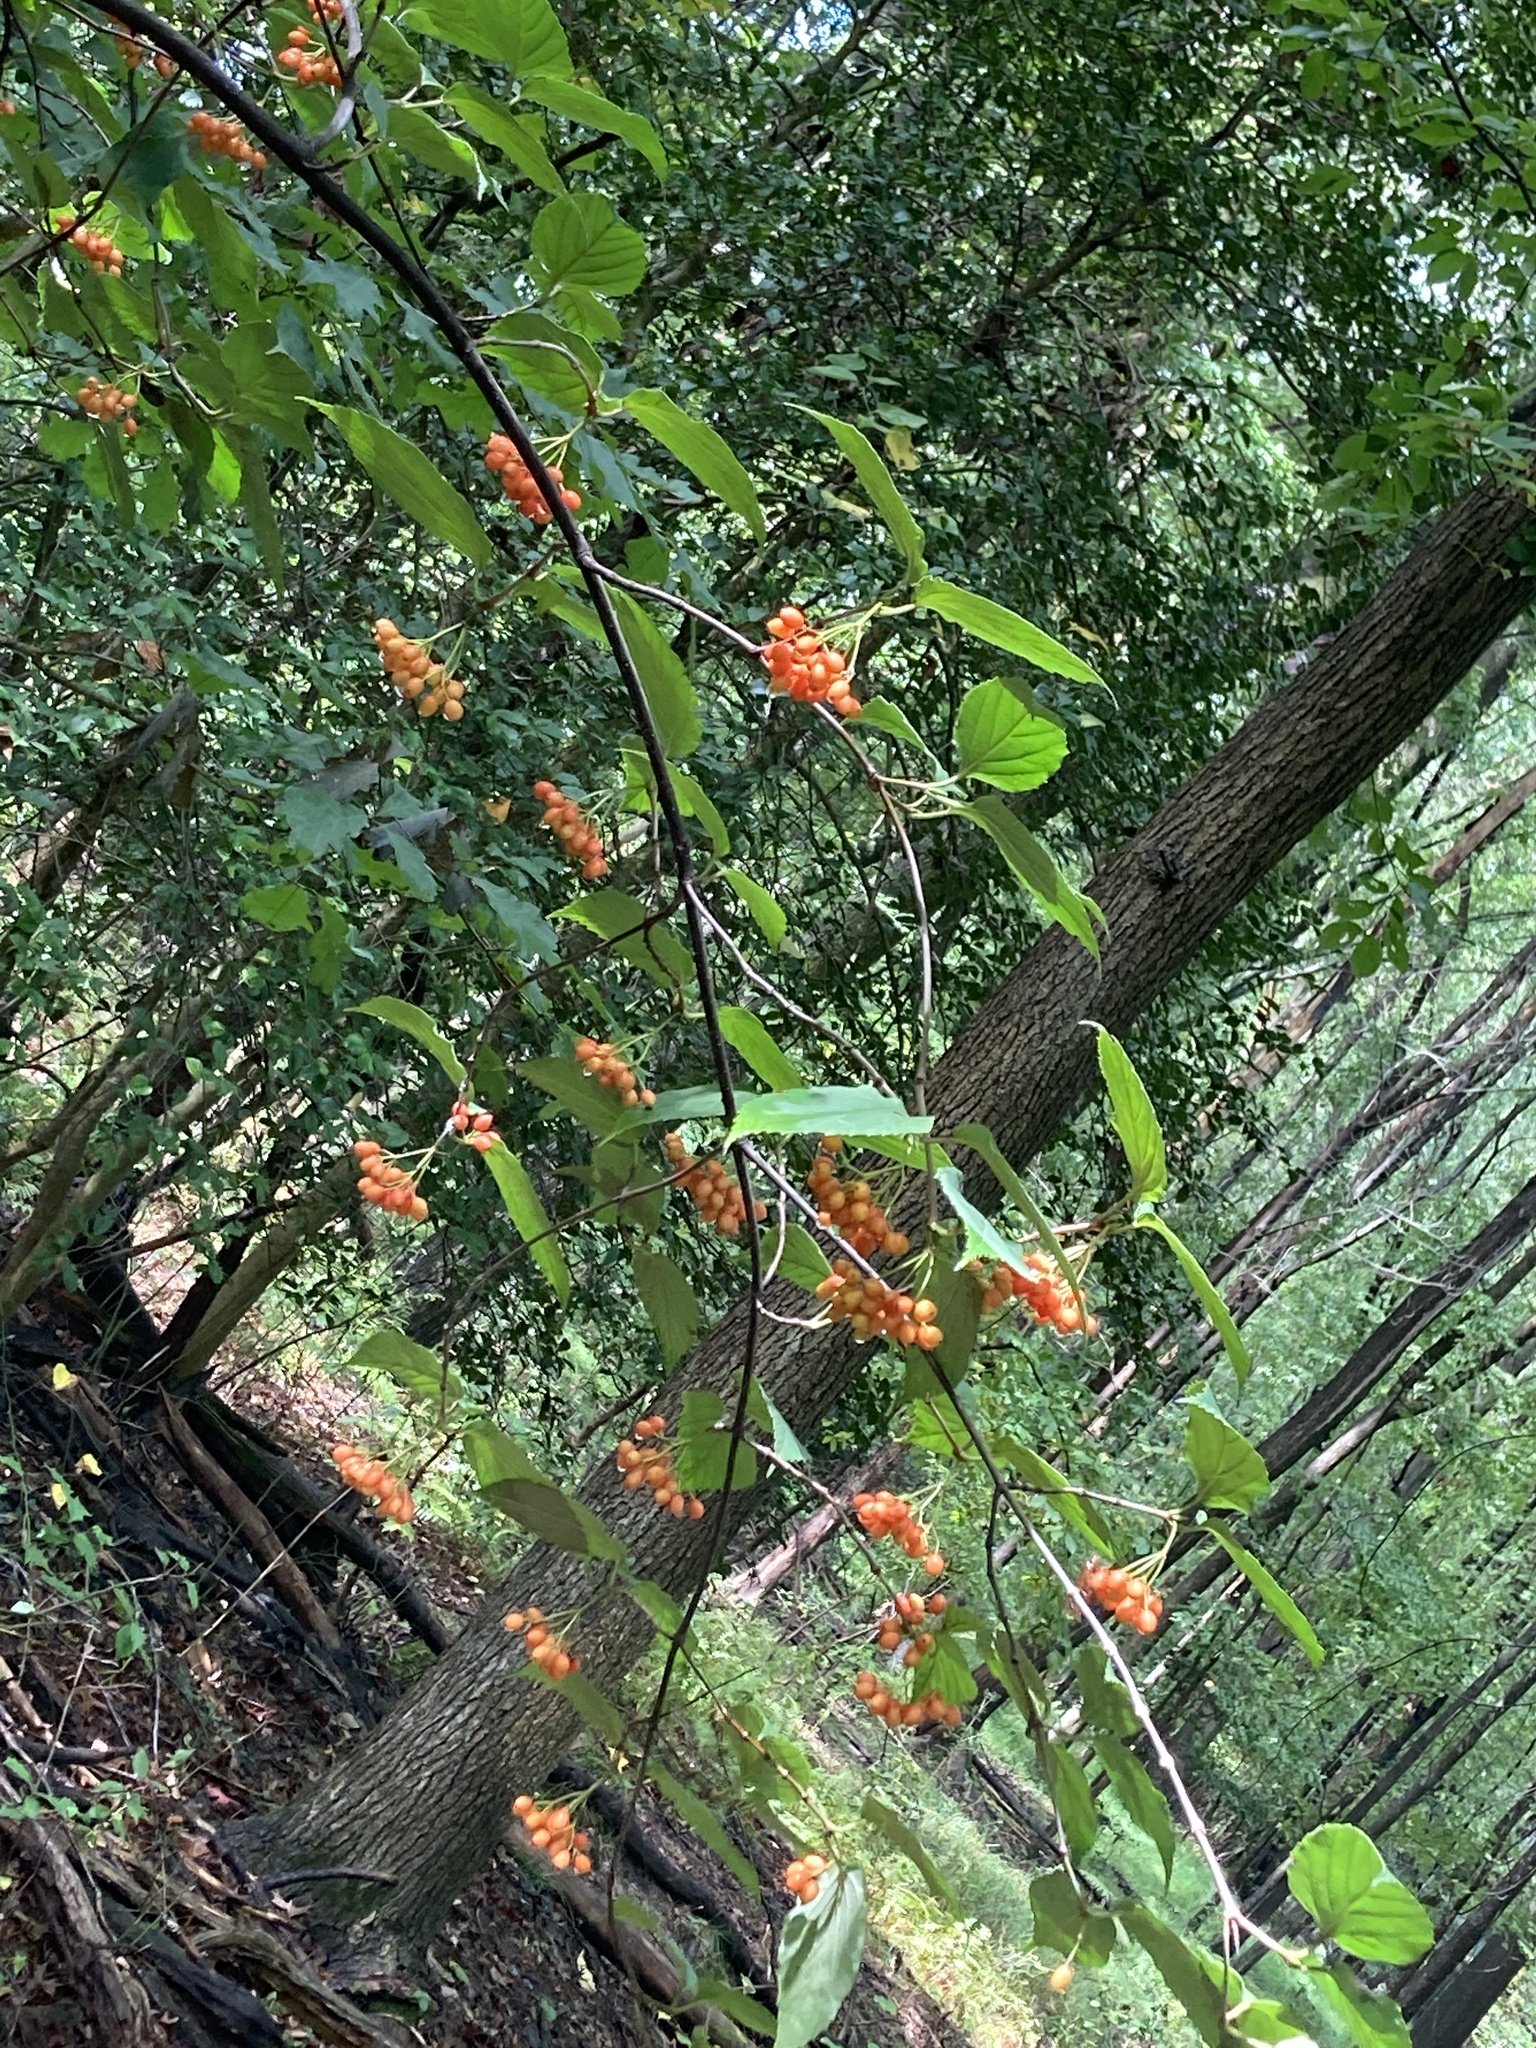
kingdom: Plantae
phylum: Tracheophyta
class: Magnoliopsida
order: Dipsacales
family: Viburnaceae
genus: Viburnum
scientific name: Viburnum setigerum
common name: Tea viburnum
